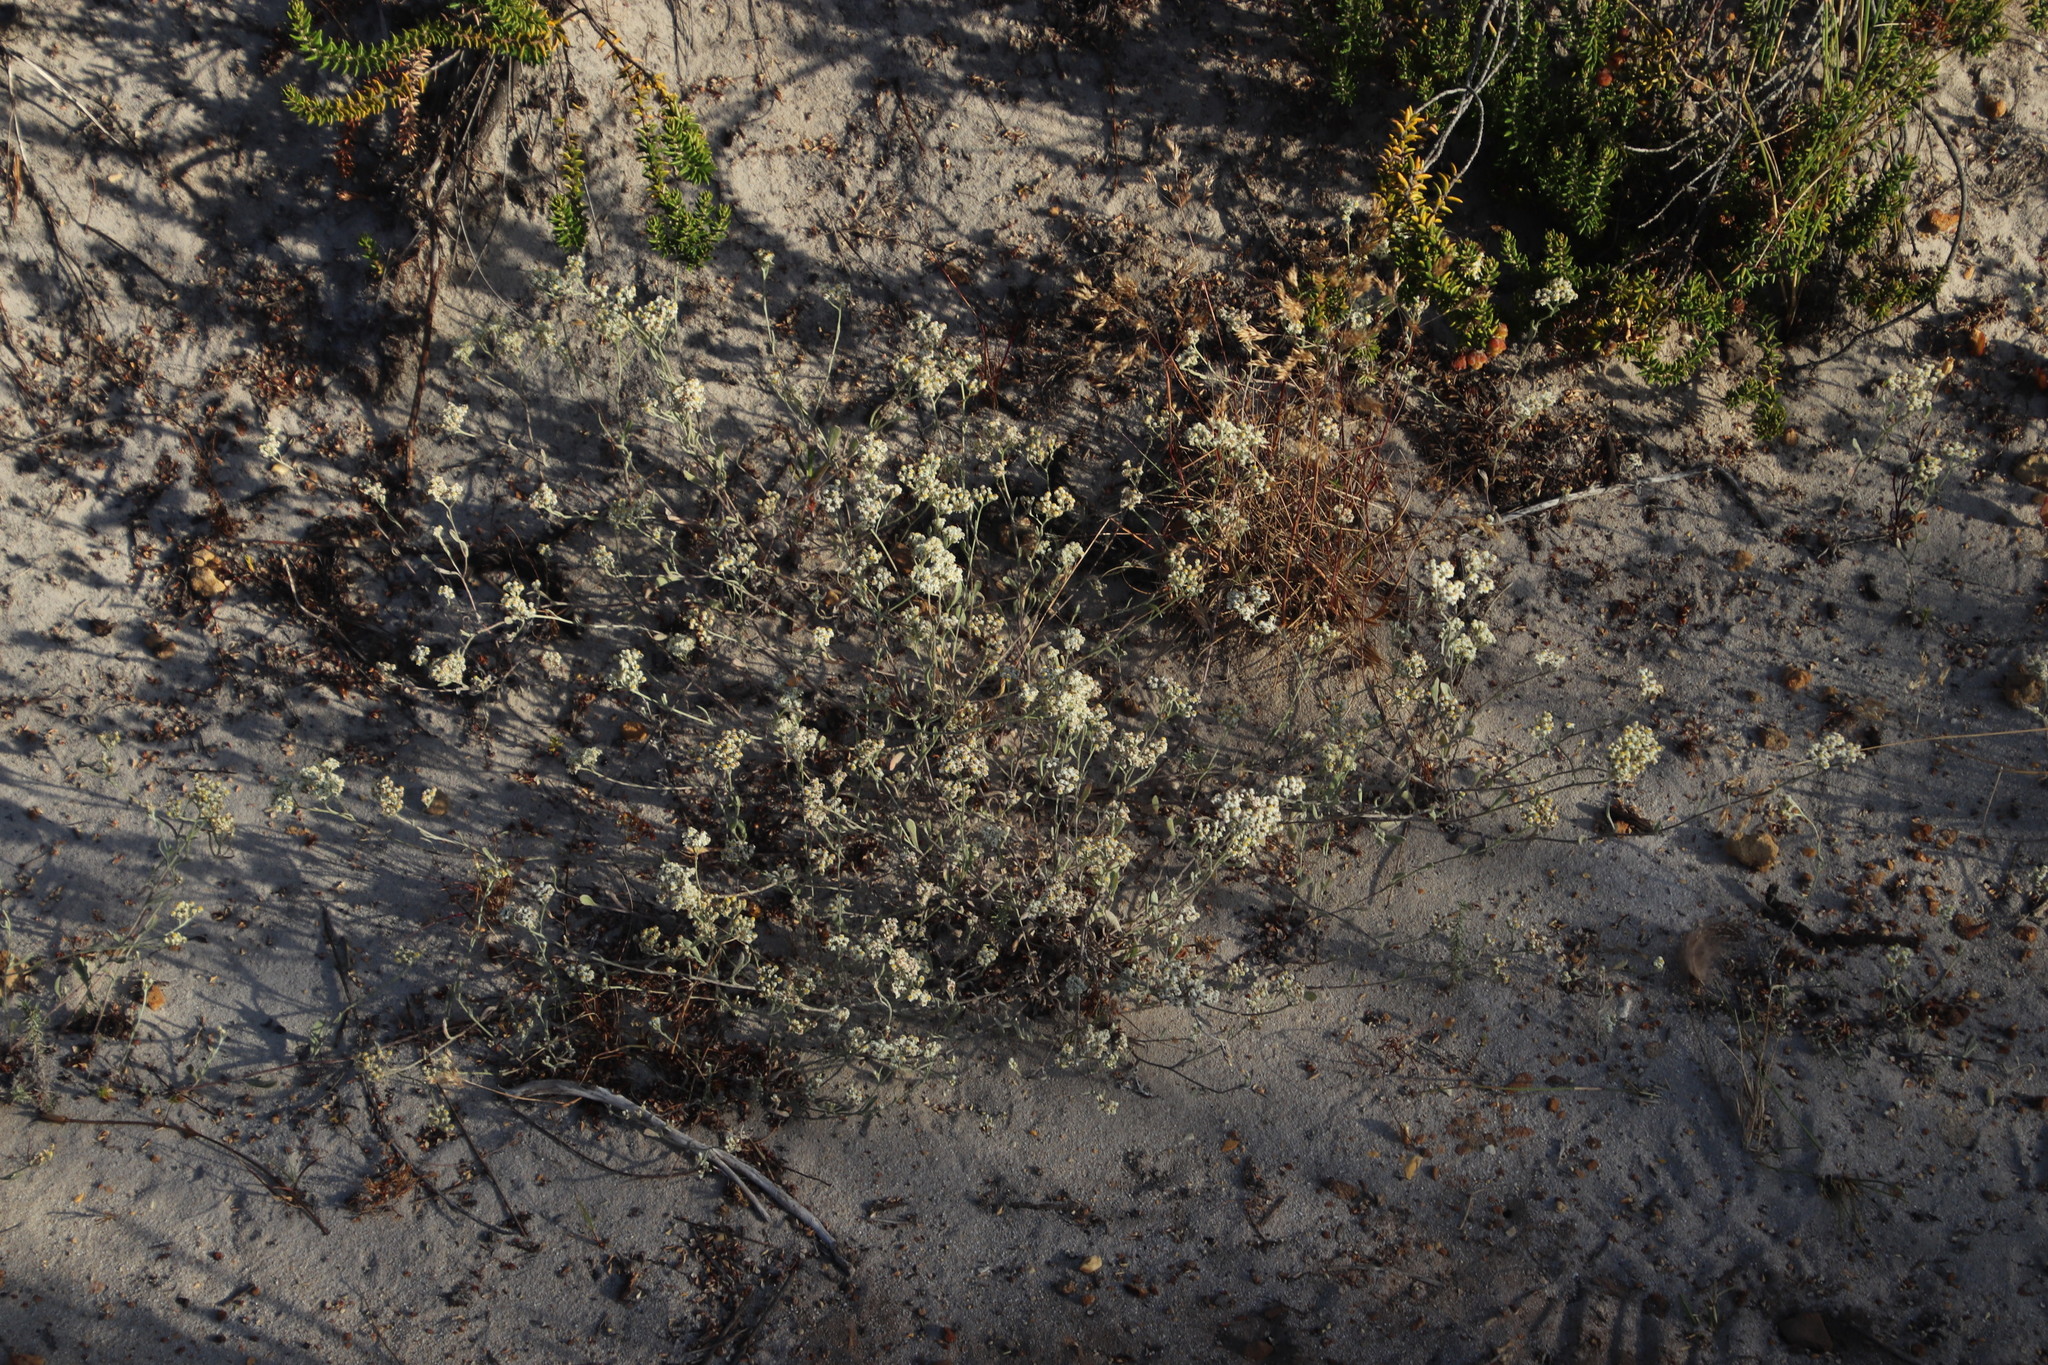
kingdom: Plantae
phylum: Tracheophyta
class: Magnoliopsida
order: Asterales
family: Asteraceae
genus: Helichrysum
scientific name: Helichrysum indicum
